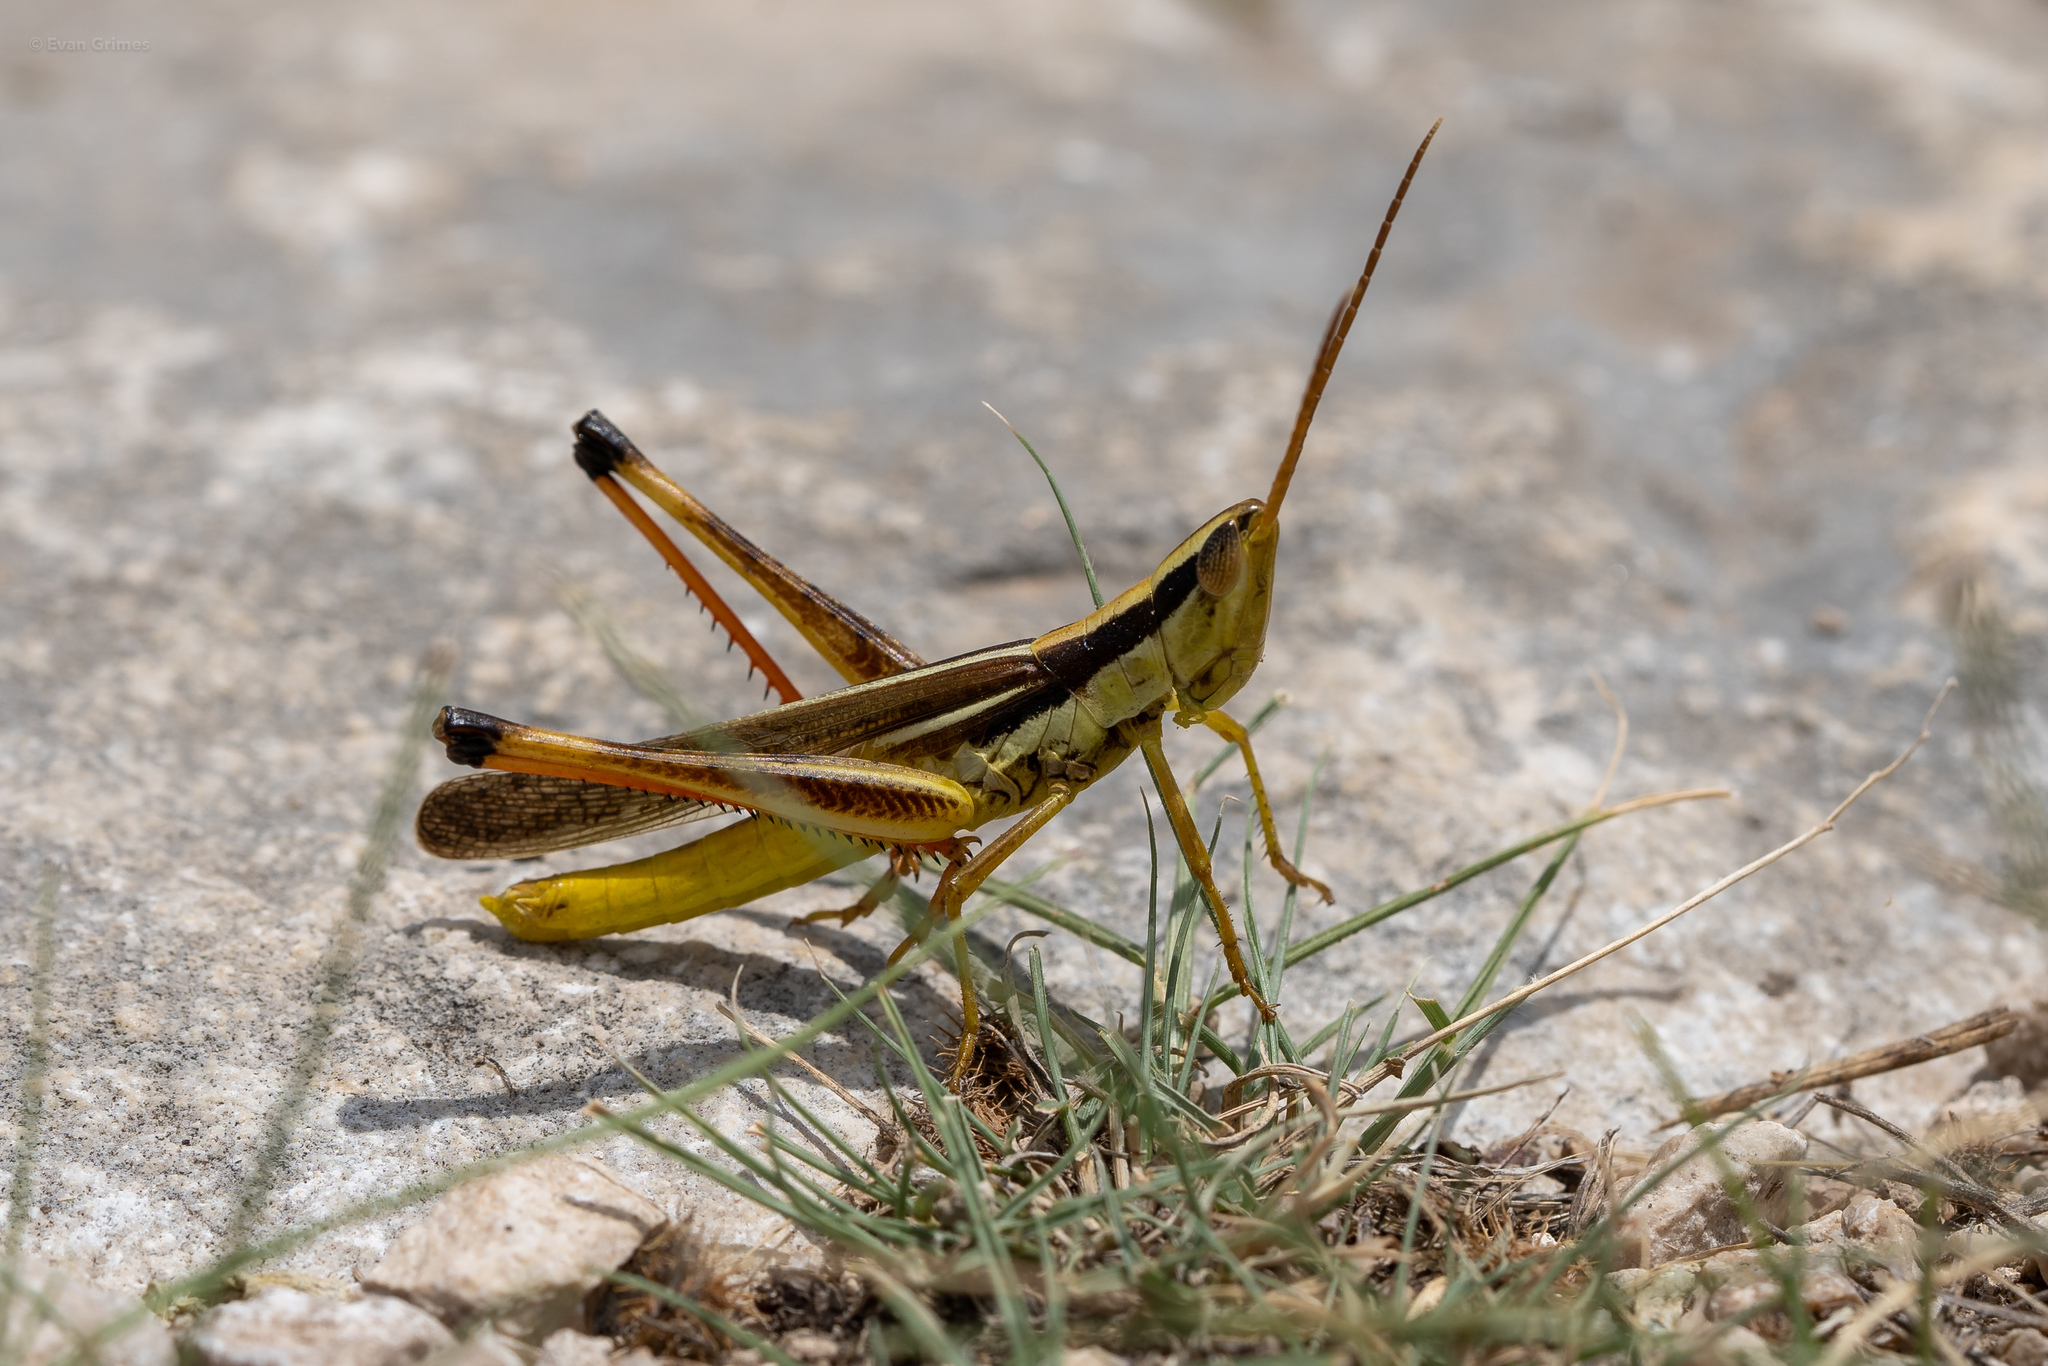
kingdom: Animalia
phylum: Arthropoda
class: Insecta
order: Orthoptera
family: Acrididae
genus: Mermiria
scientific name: Mermiria bivittata
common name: Two-striped mermiria grasshopper
